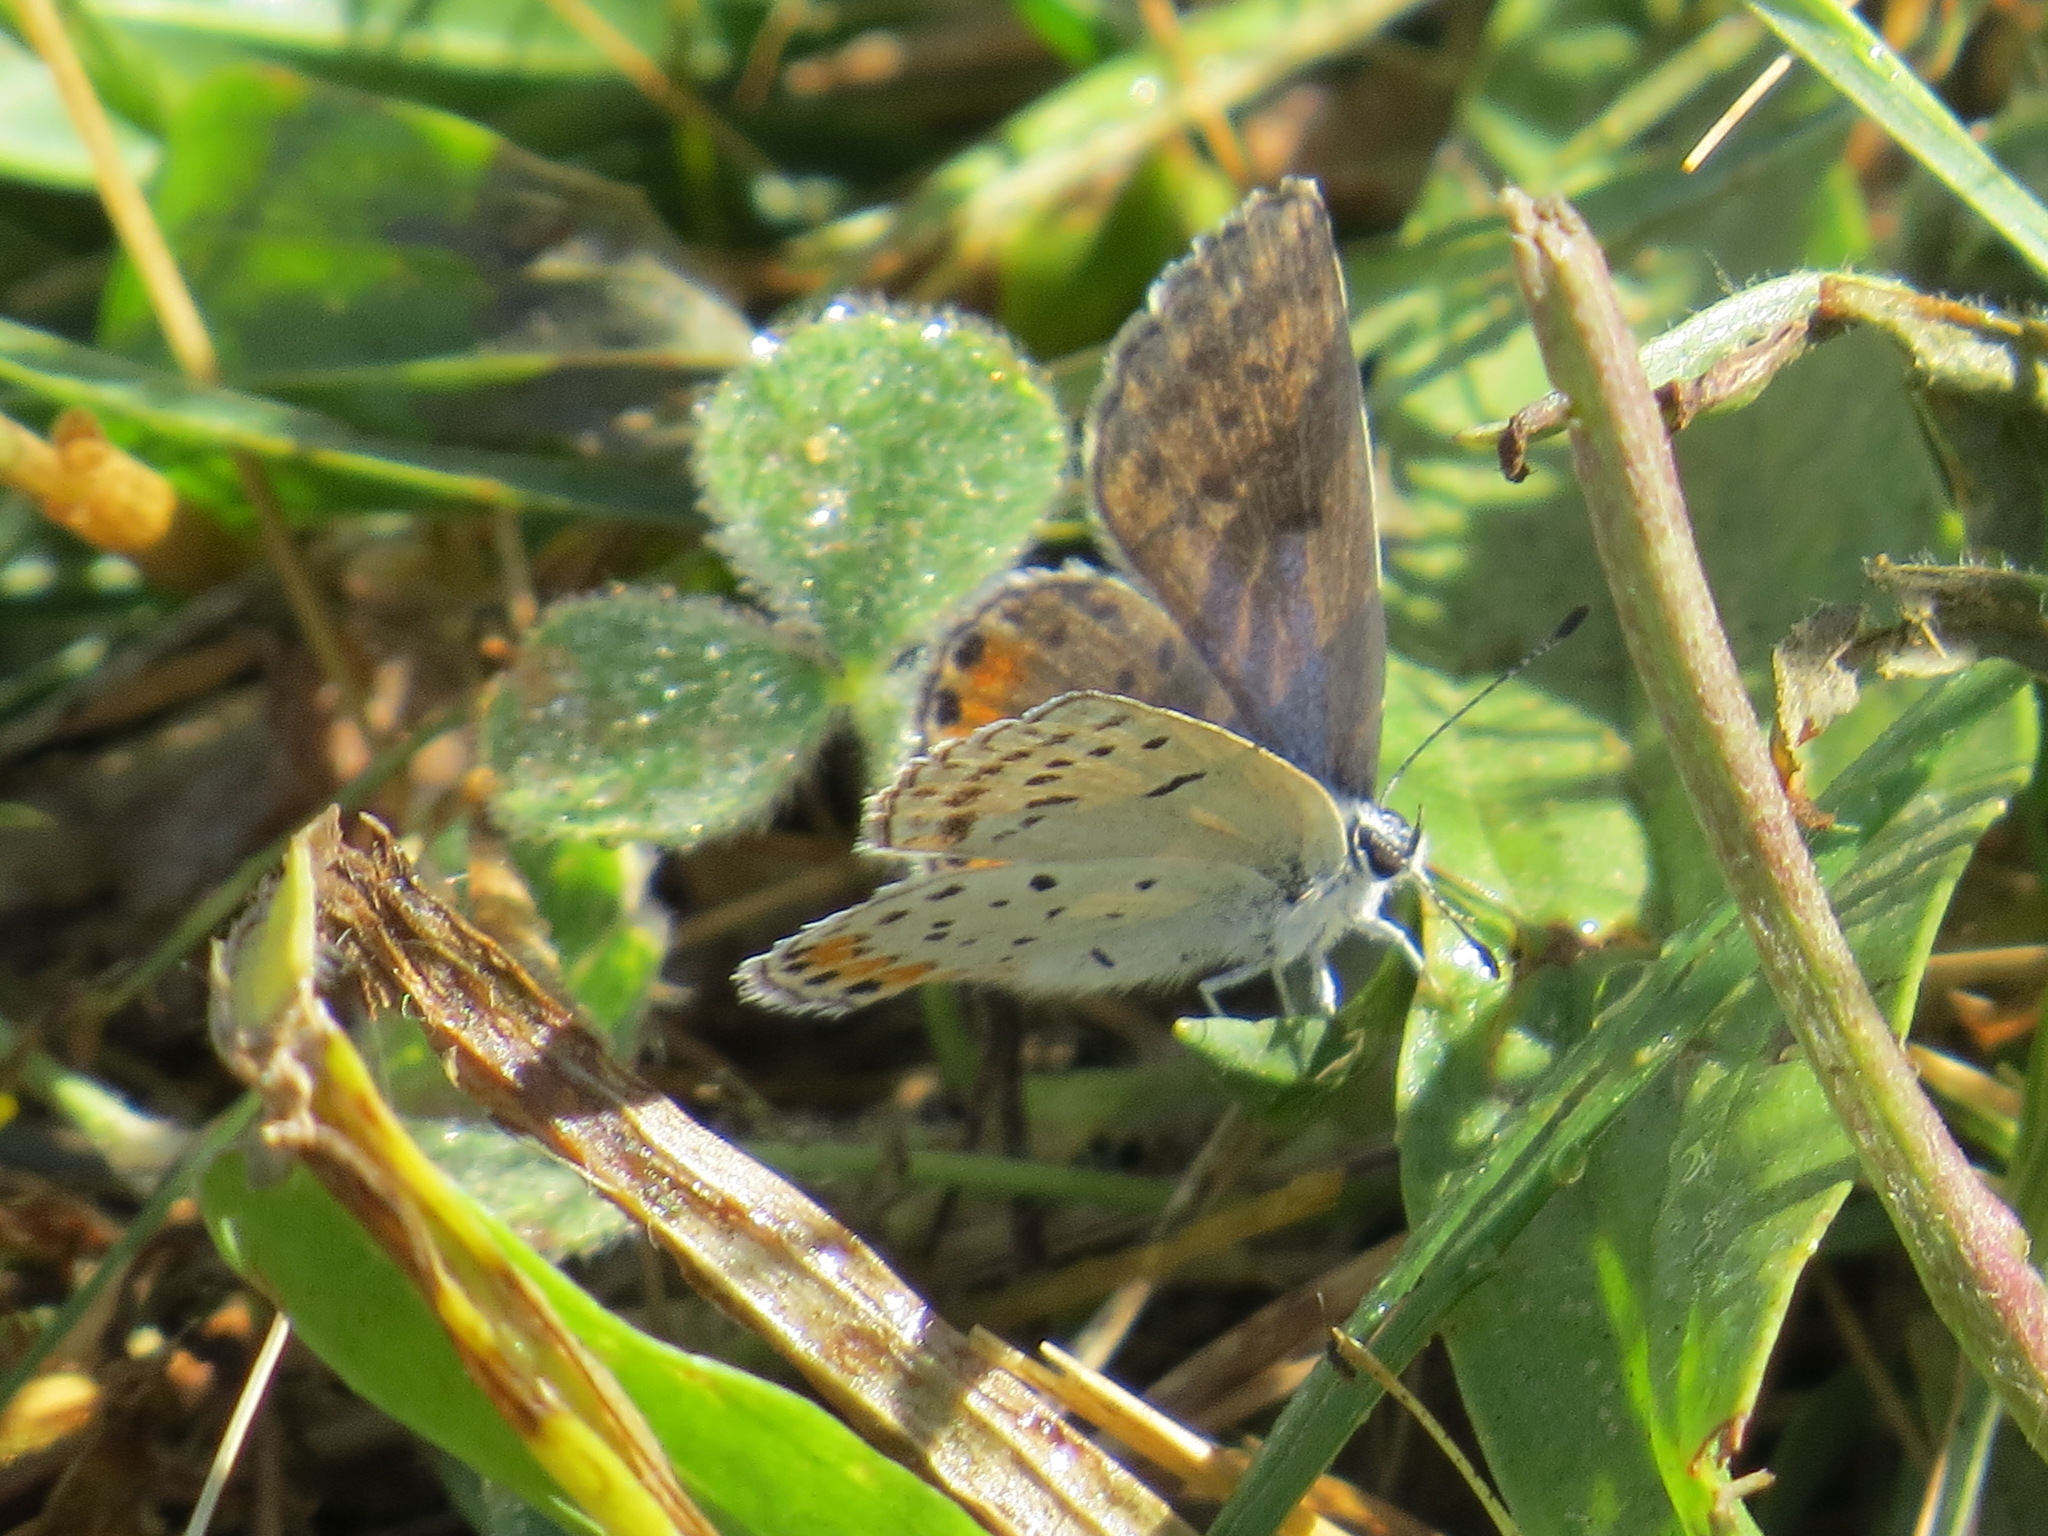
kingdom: Animalia
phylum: Arthropoda
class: Insecta
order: Lepidoptera
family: Lycaenidae
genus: Icaricia
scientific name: Icaricia acmon
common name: Acmon blue
